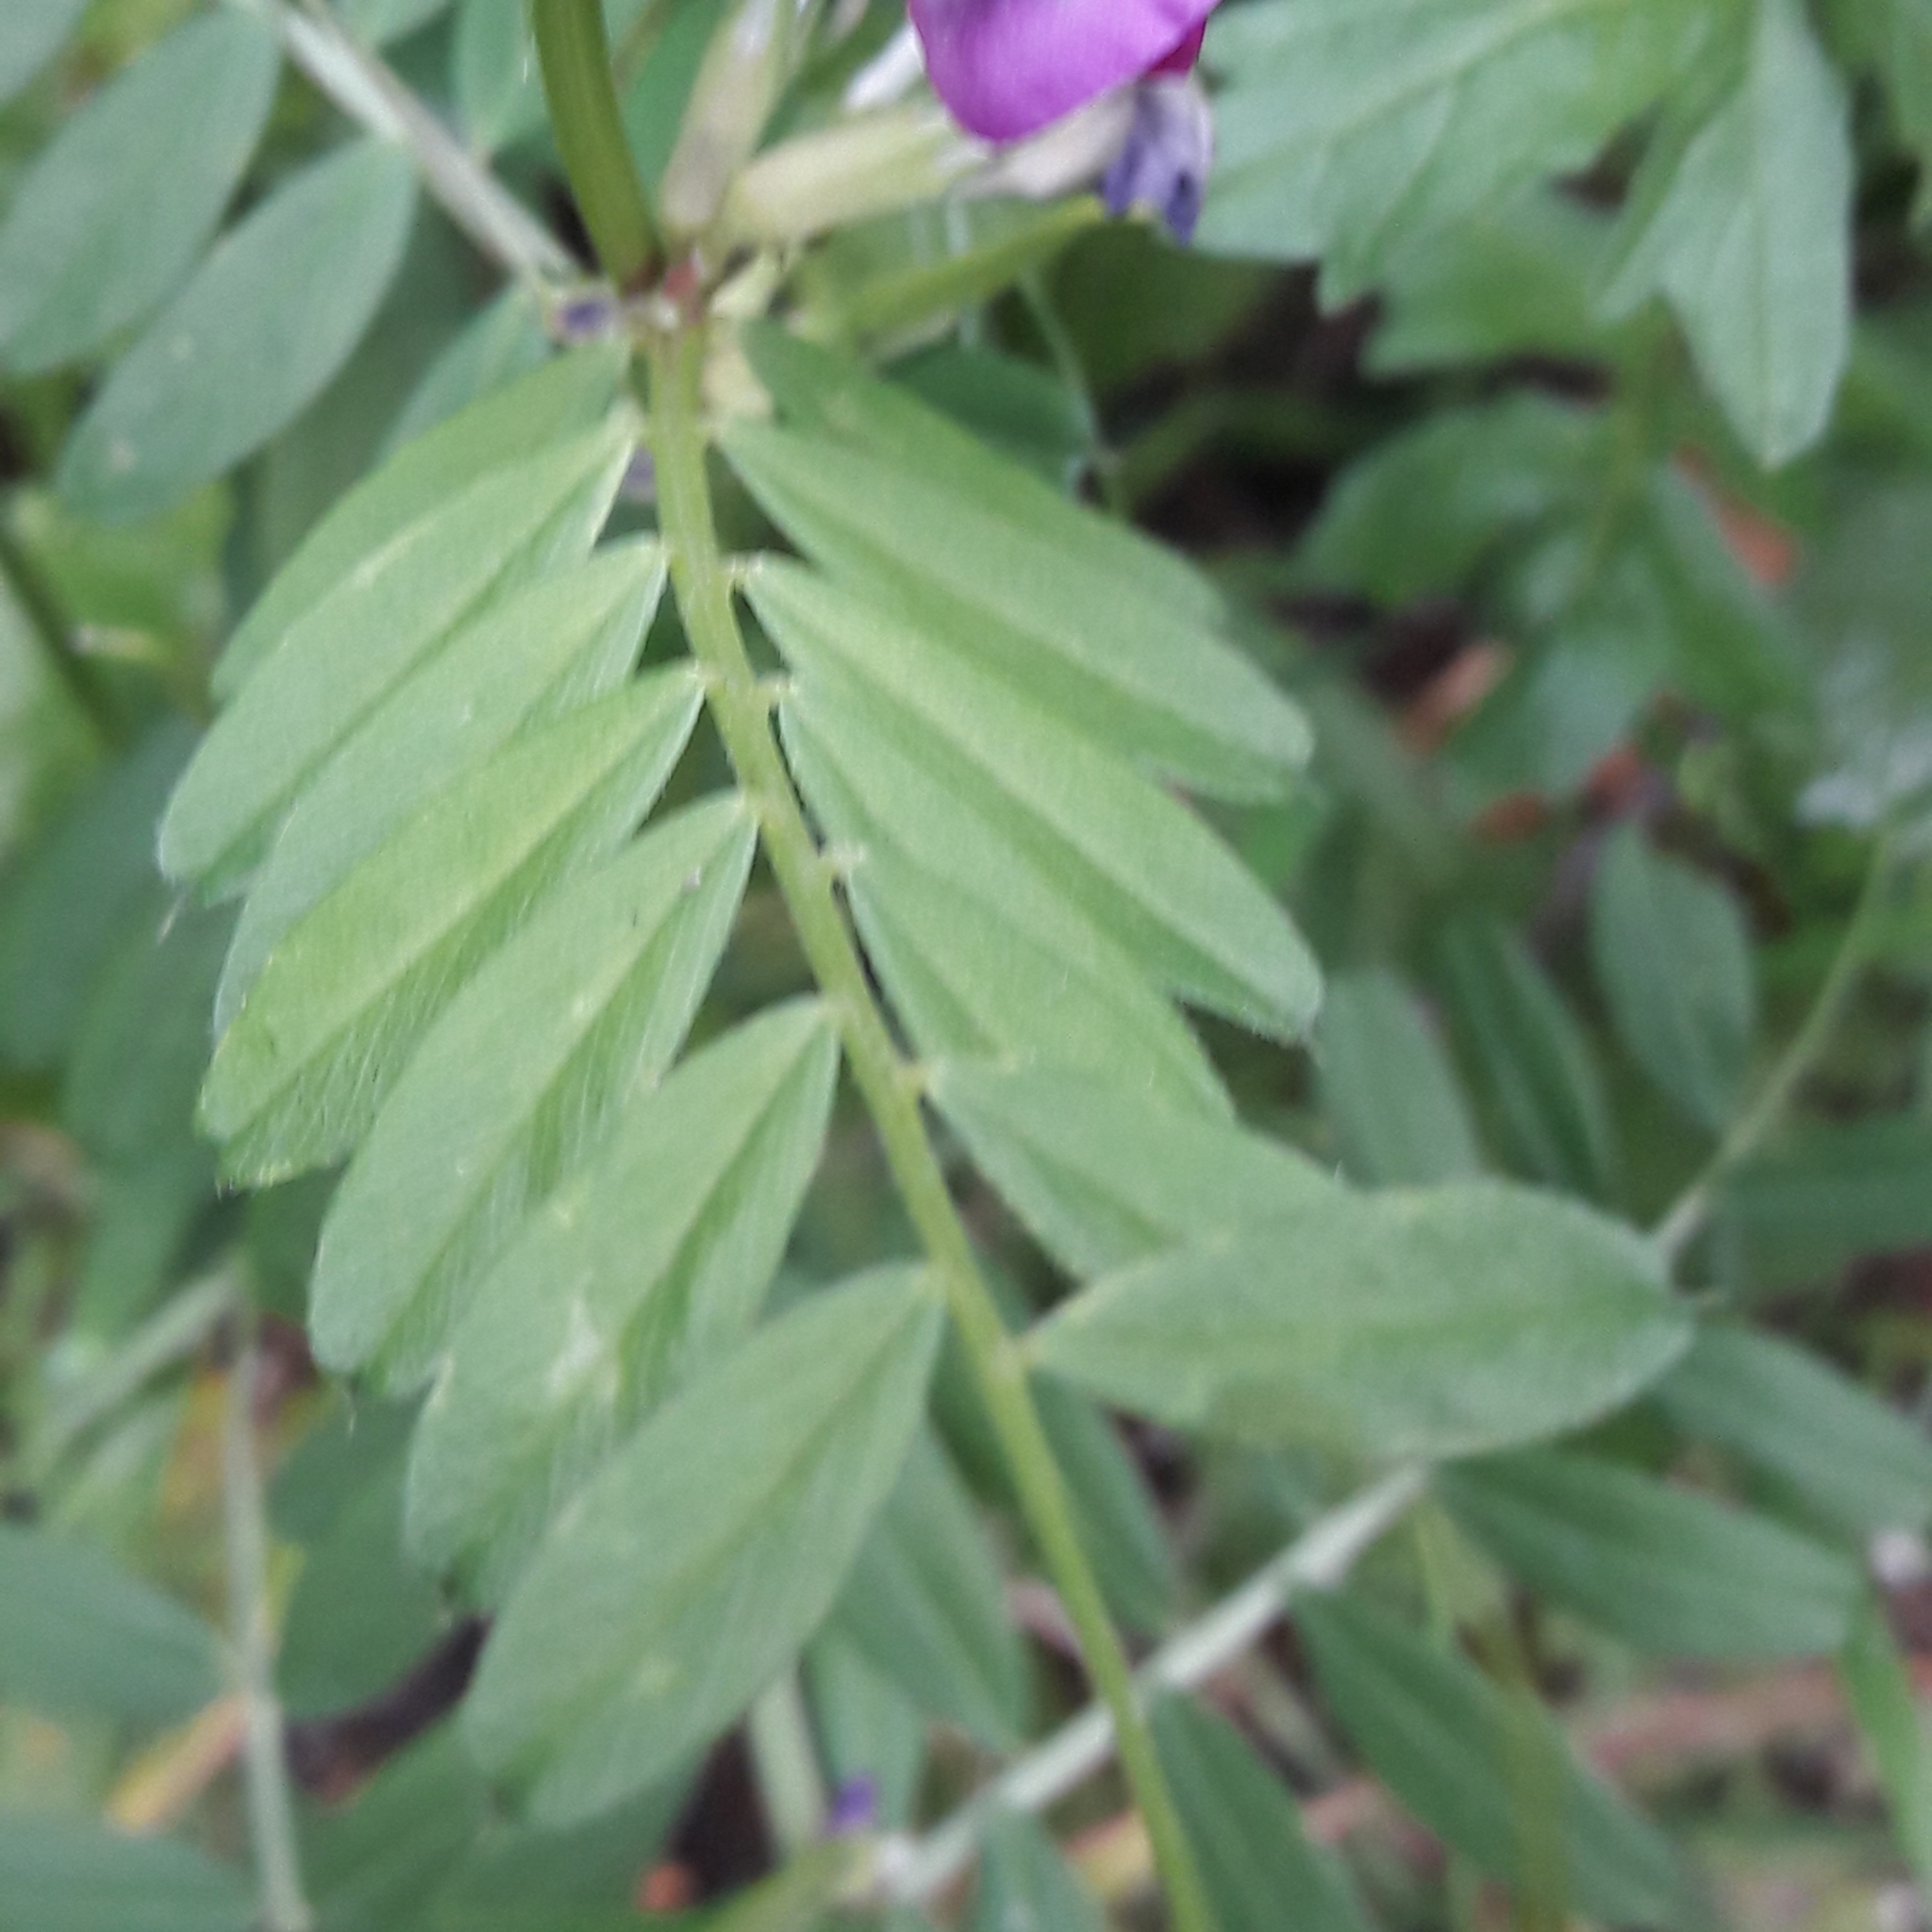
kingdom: Plantae
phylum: Tracheophyta
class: Magnoliopsida
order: Fabales
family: Fabaceae
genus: Vicia
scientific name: Vicia sativa
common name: Garden vetch
